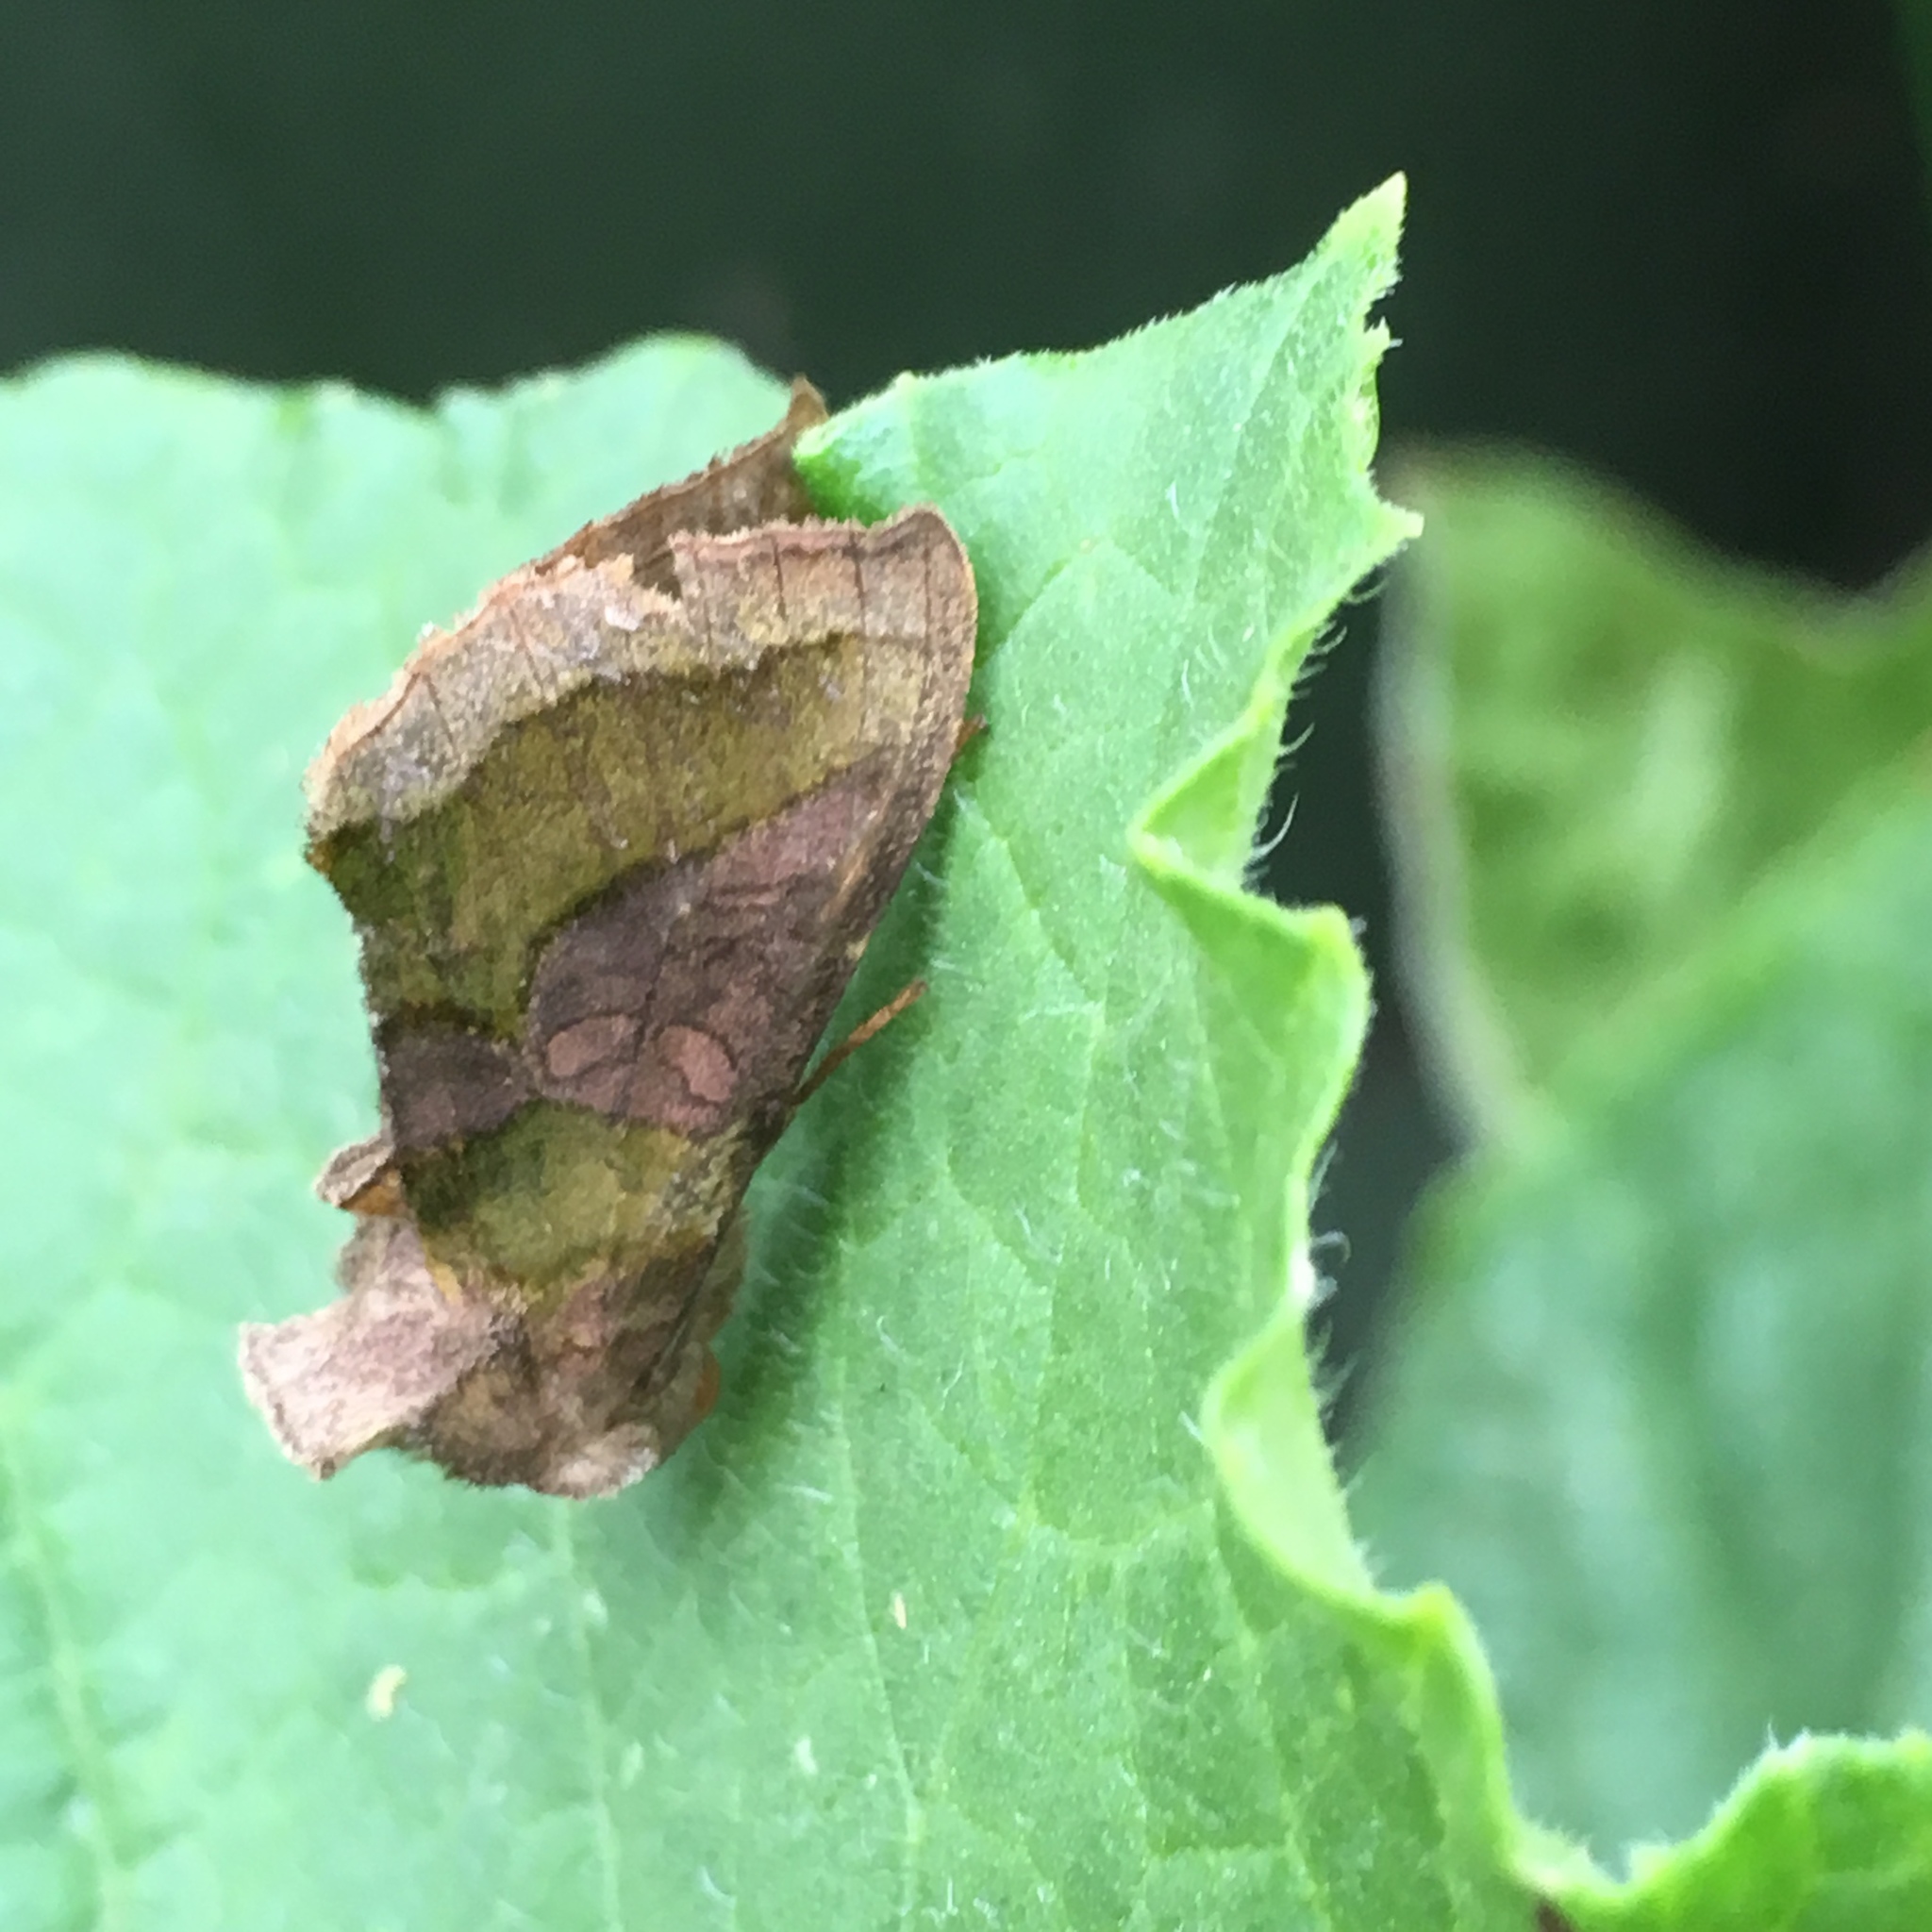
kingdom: Animalia
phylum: Arthropoda
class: Insecta
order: Lepidoptera
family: Noctuidae
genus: Diachrysia
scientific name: Diachrysia chrysitis
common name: Burnished brass
